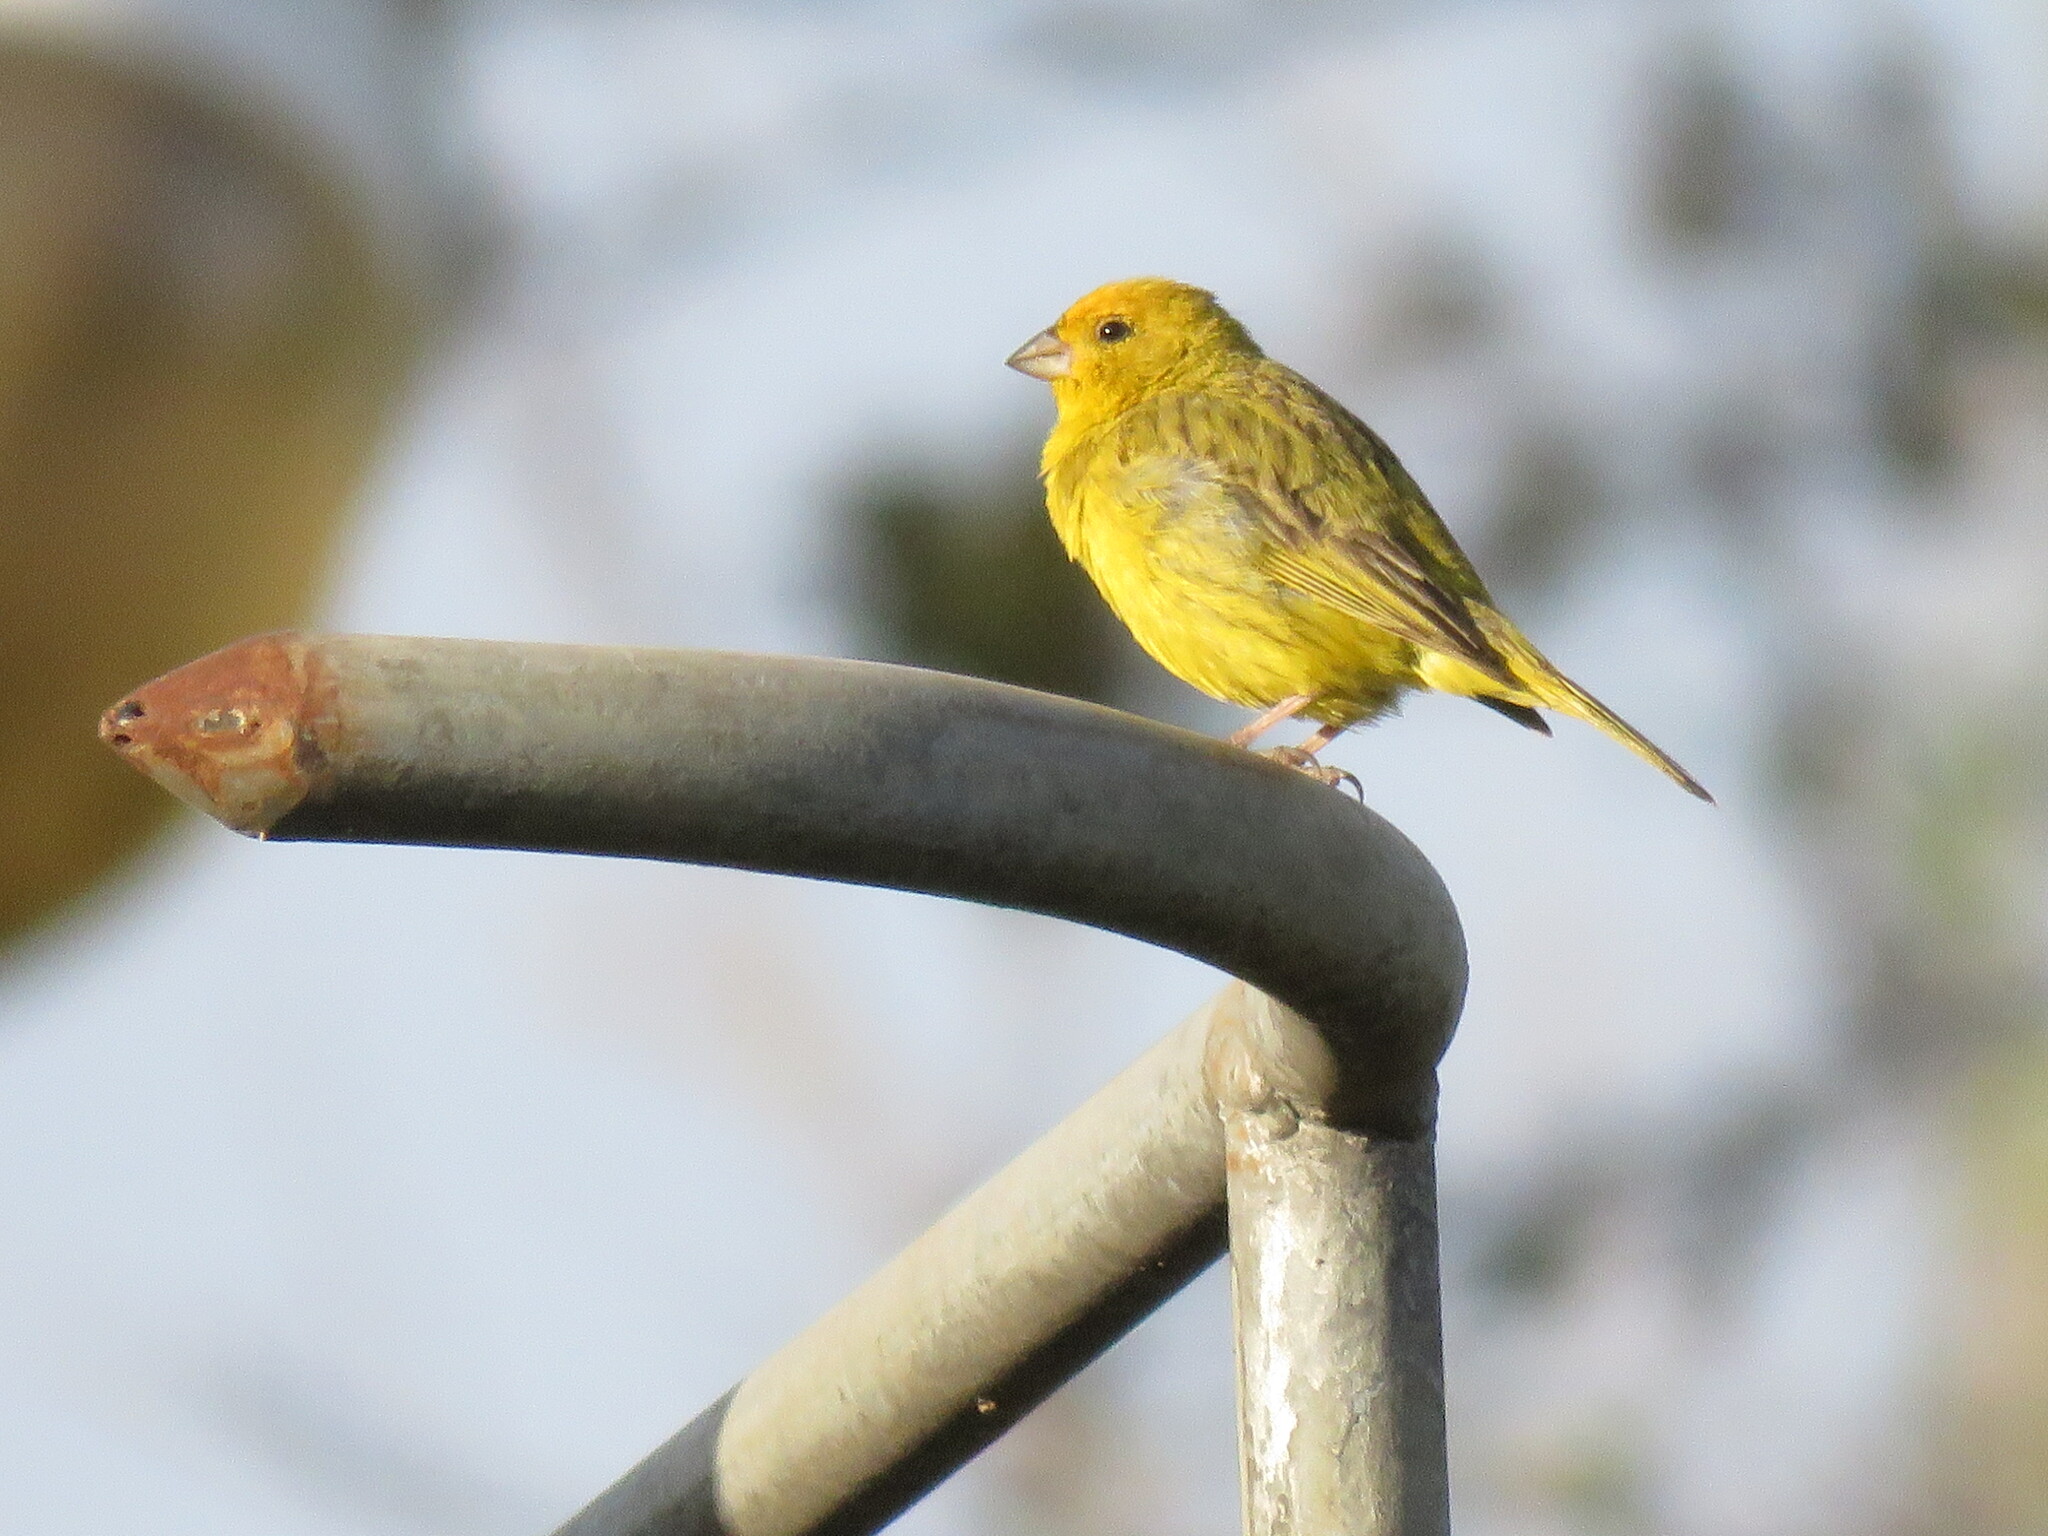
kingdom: Animalia
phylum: Chordata
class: Aves
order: Passeriformes
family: Thraupidae
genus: Sicalis
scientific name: Sicalis flaveola
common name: Saffron finch
